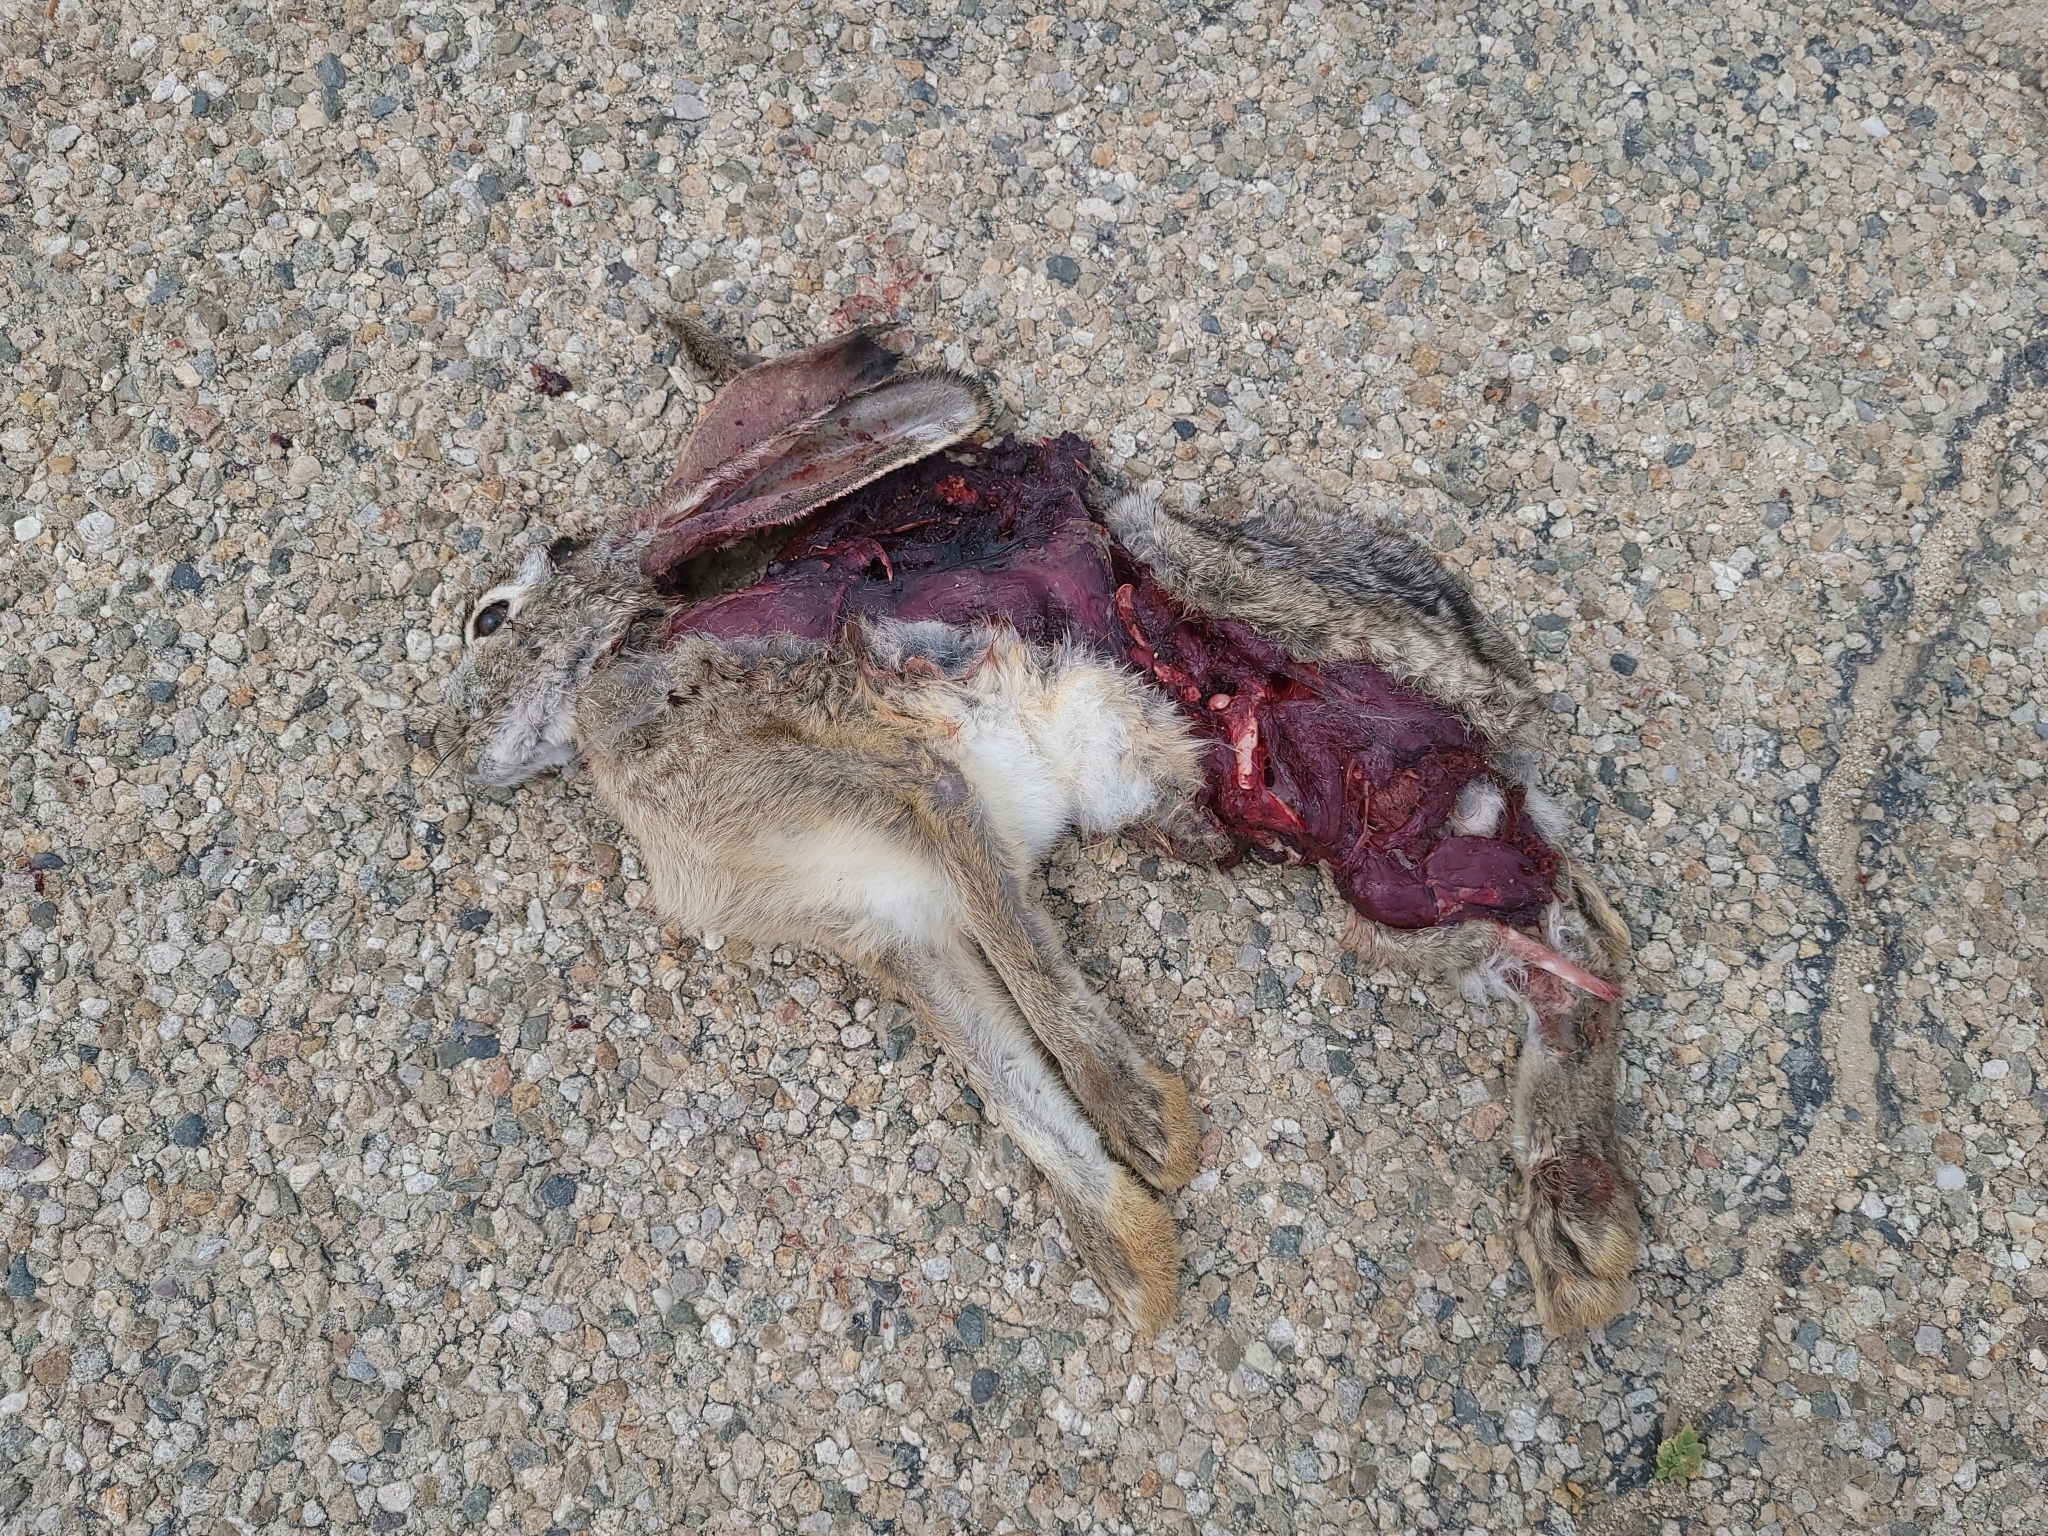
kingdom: Animalia
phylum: Chordata
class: Mammalia
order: Lagomorpha
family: Leporidae
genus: Lepus
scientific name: Lepus californicus
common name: Black-tailed jackrabbit
